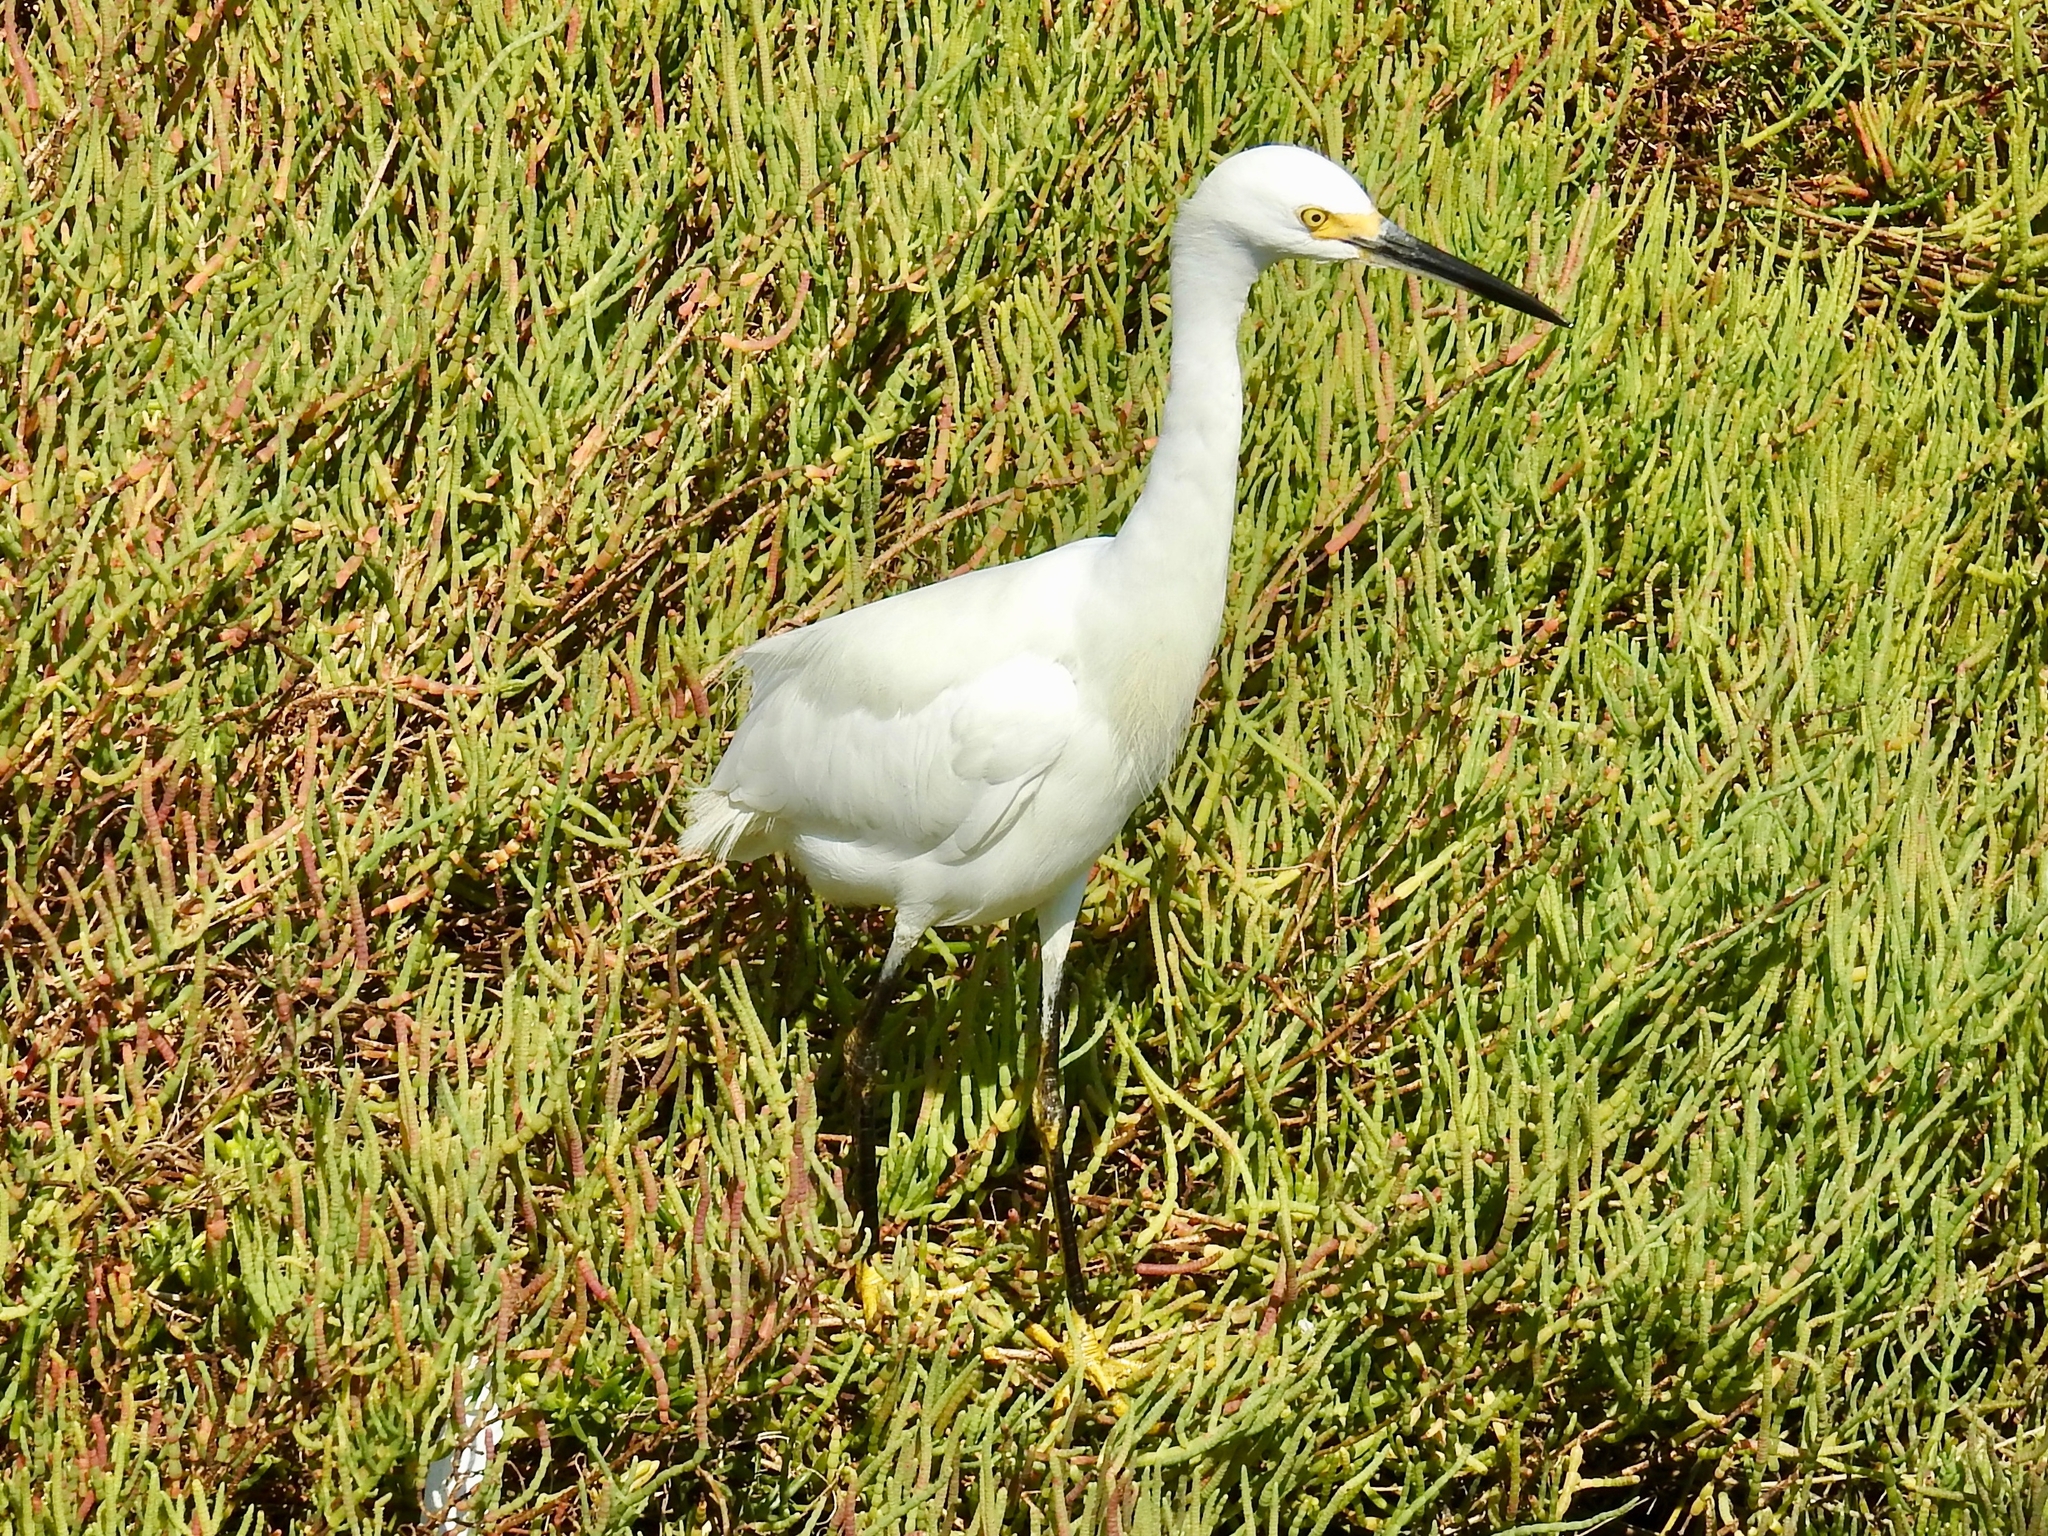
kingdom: Animalia
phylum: Chordata
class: Aves
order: Pelecaniformes
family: Ardeidae
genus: Egretta
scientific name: Egretta thula
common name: Snowy egret
